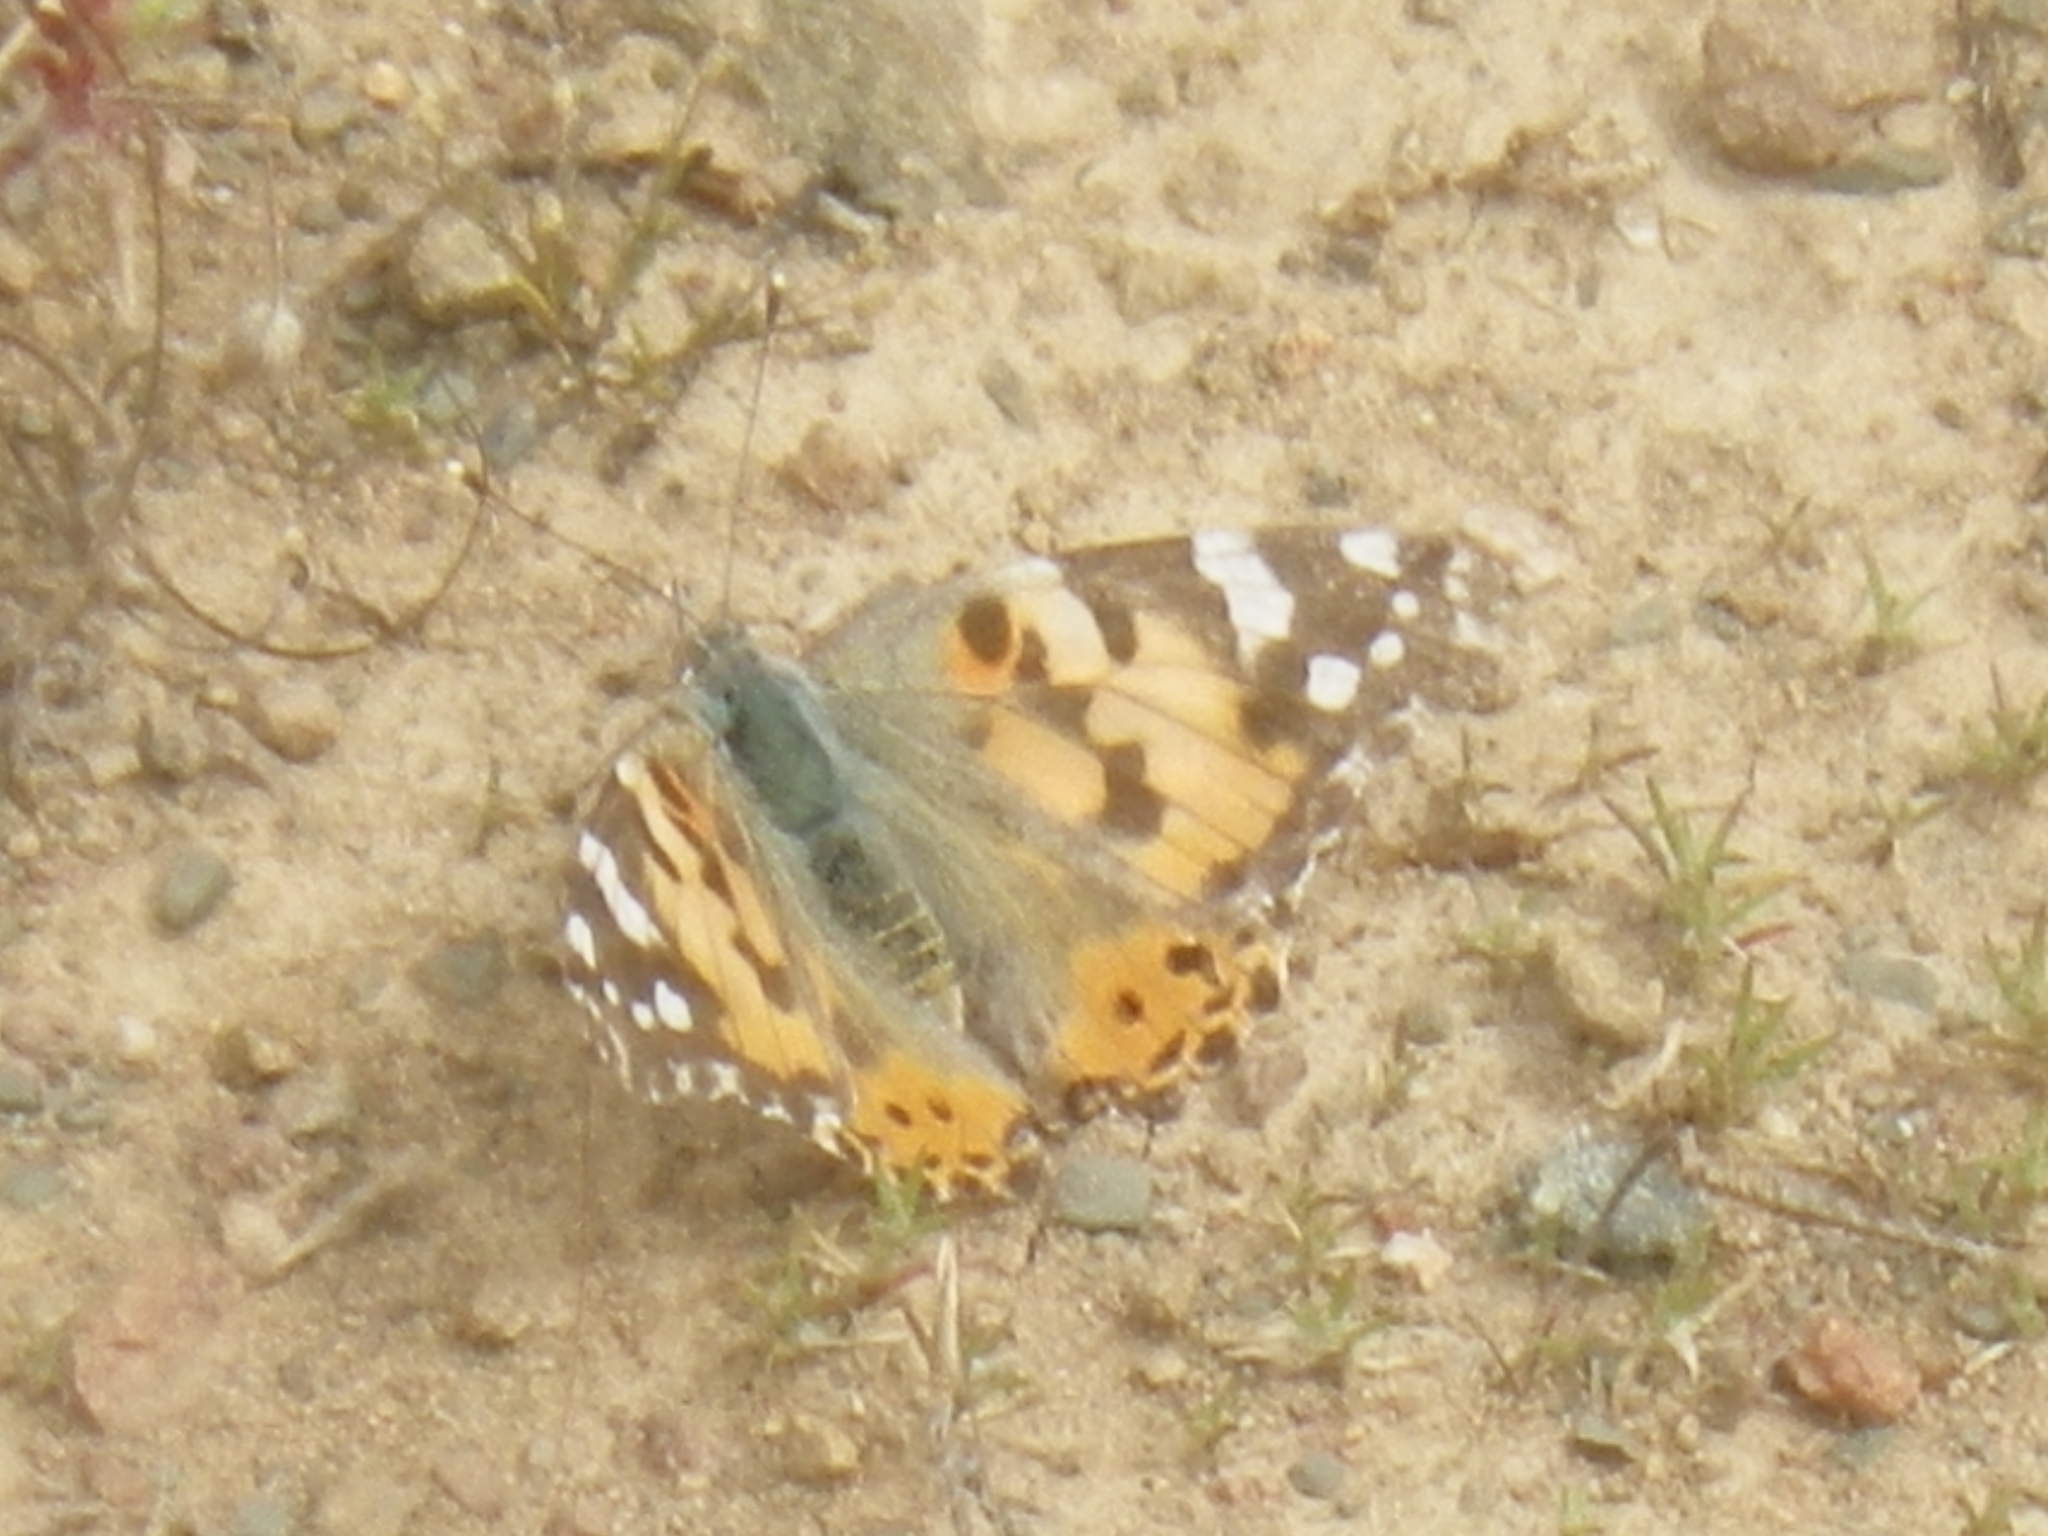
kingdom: Animalia
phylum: Arthropoda
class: Insecta
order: Lepidoptera
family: Nymphalidae
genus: Vanessa
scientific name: Vanessa cardui
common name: Painted lady
